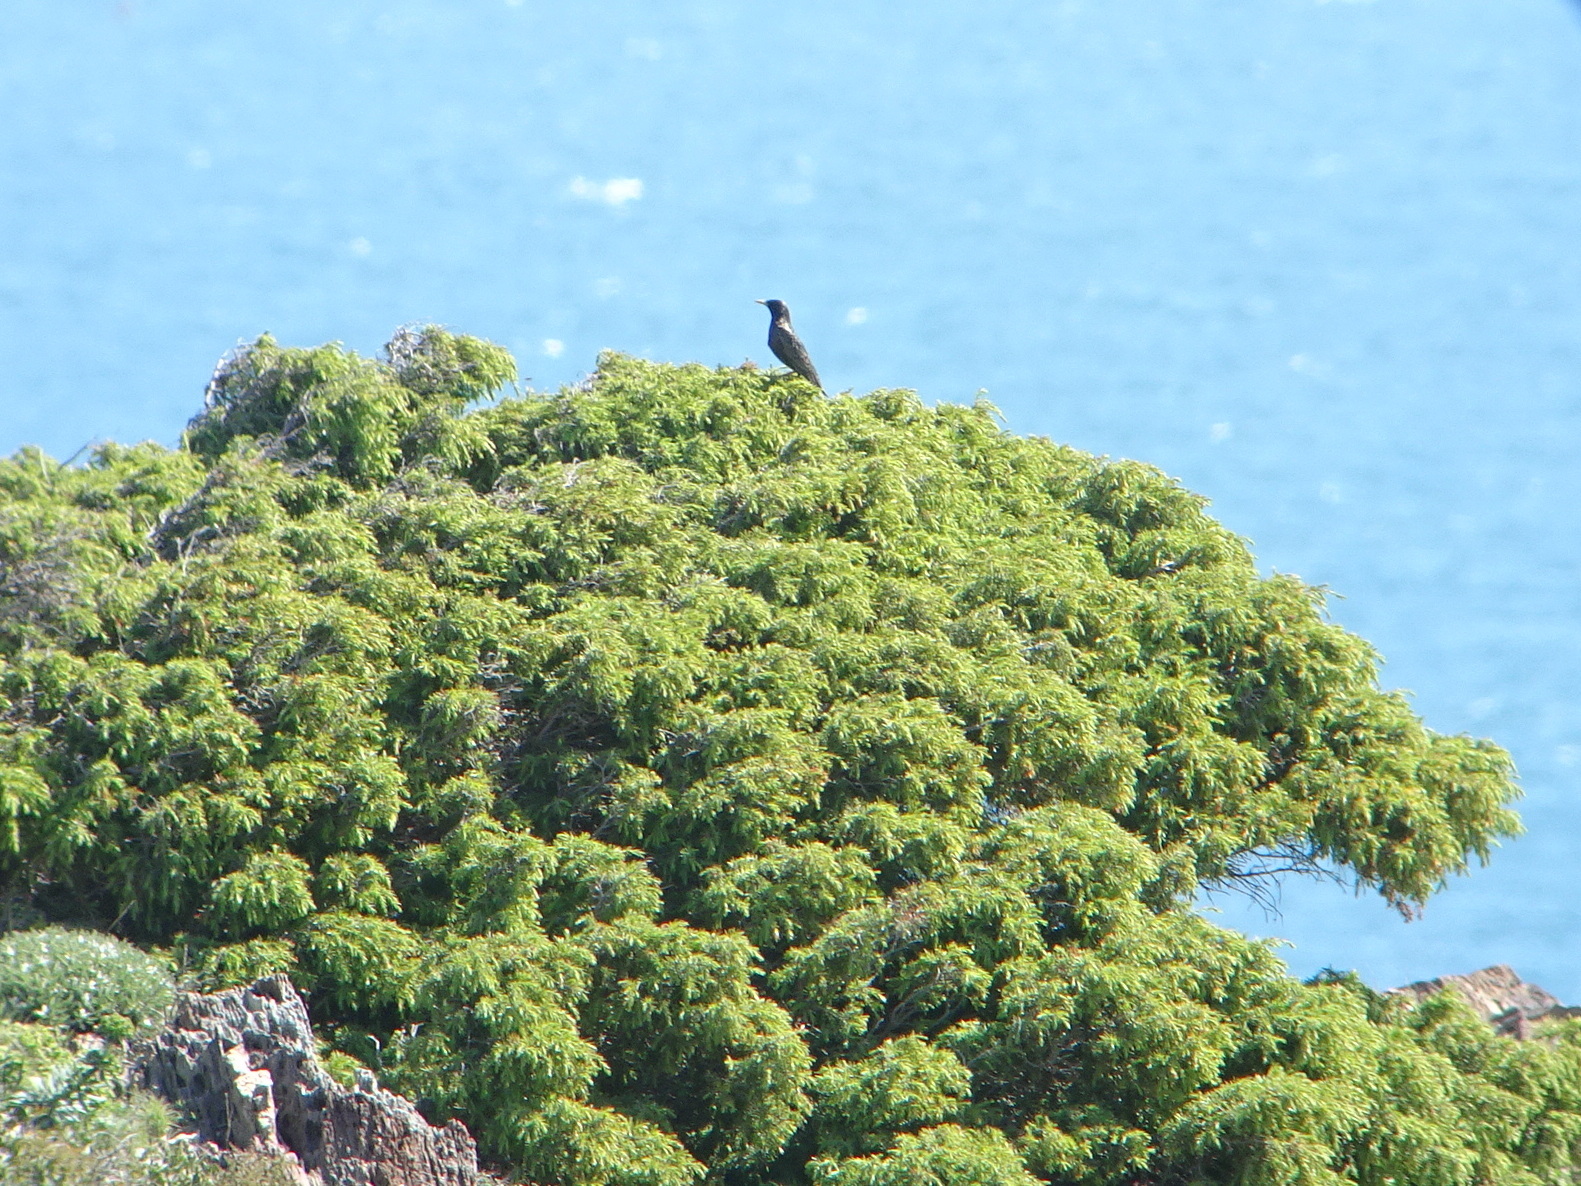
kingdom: Animalia
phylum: Chordata
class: Aves
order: Passeriformes
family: Sturnidae
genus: Sturnus
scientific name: Sturnus vulgaris
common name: Common starling
